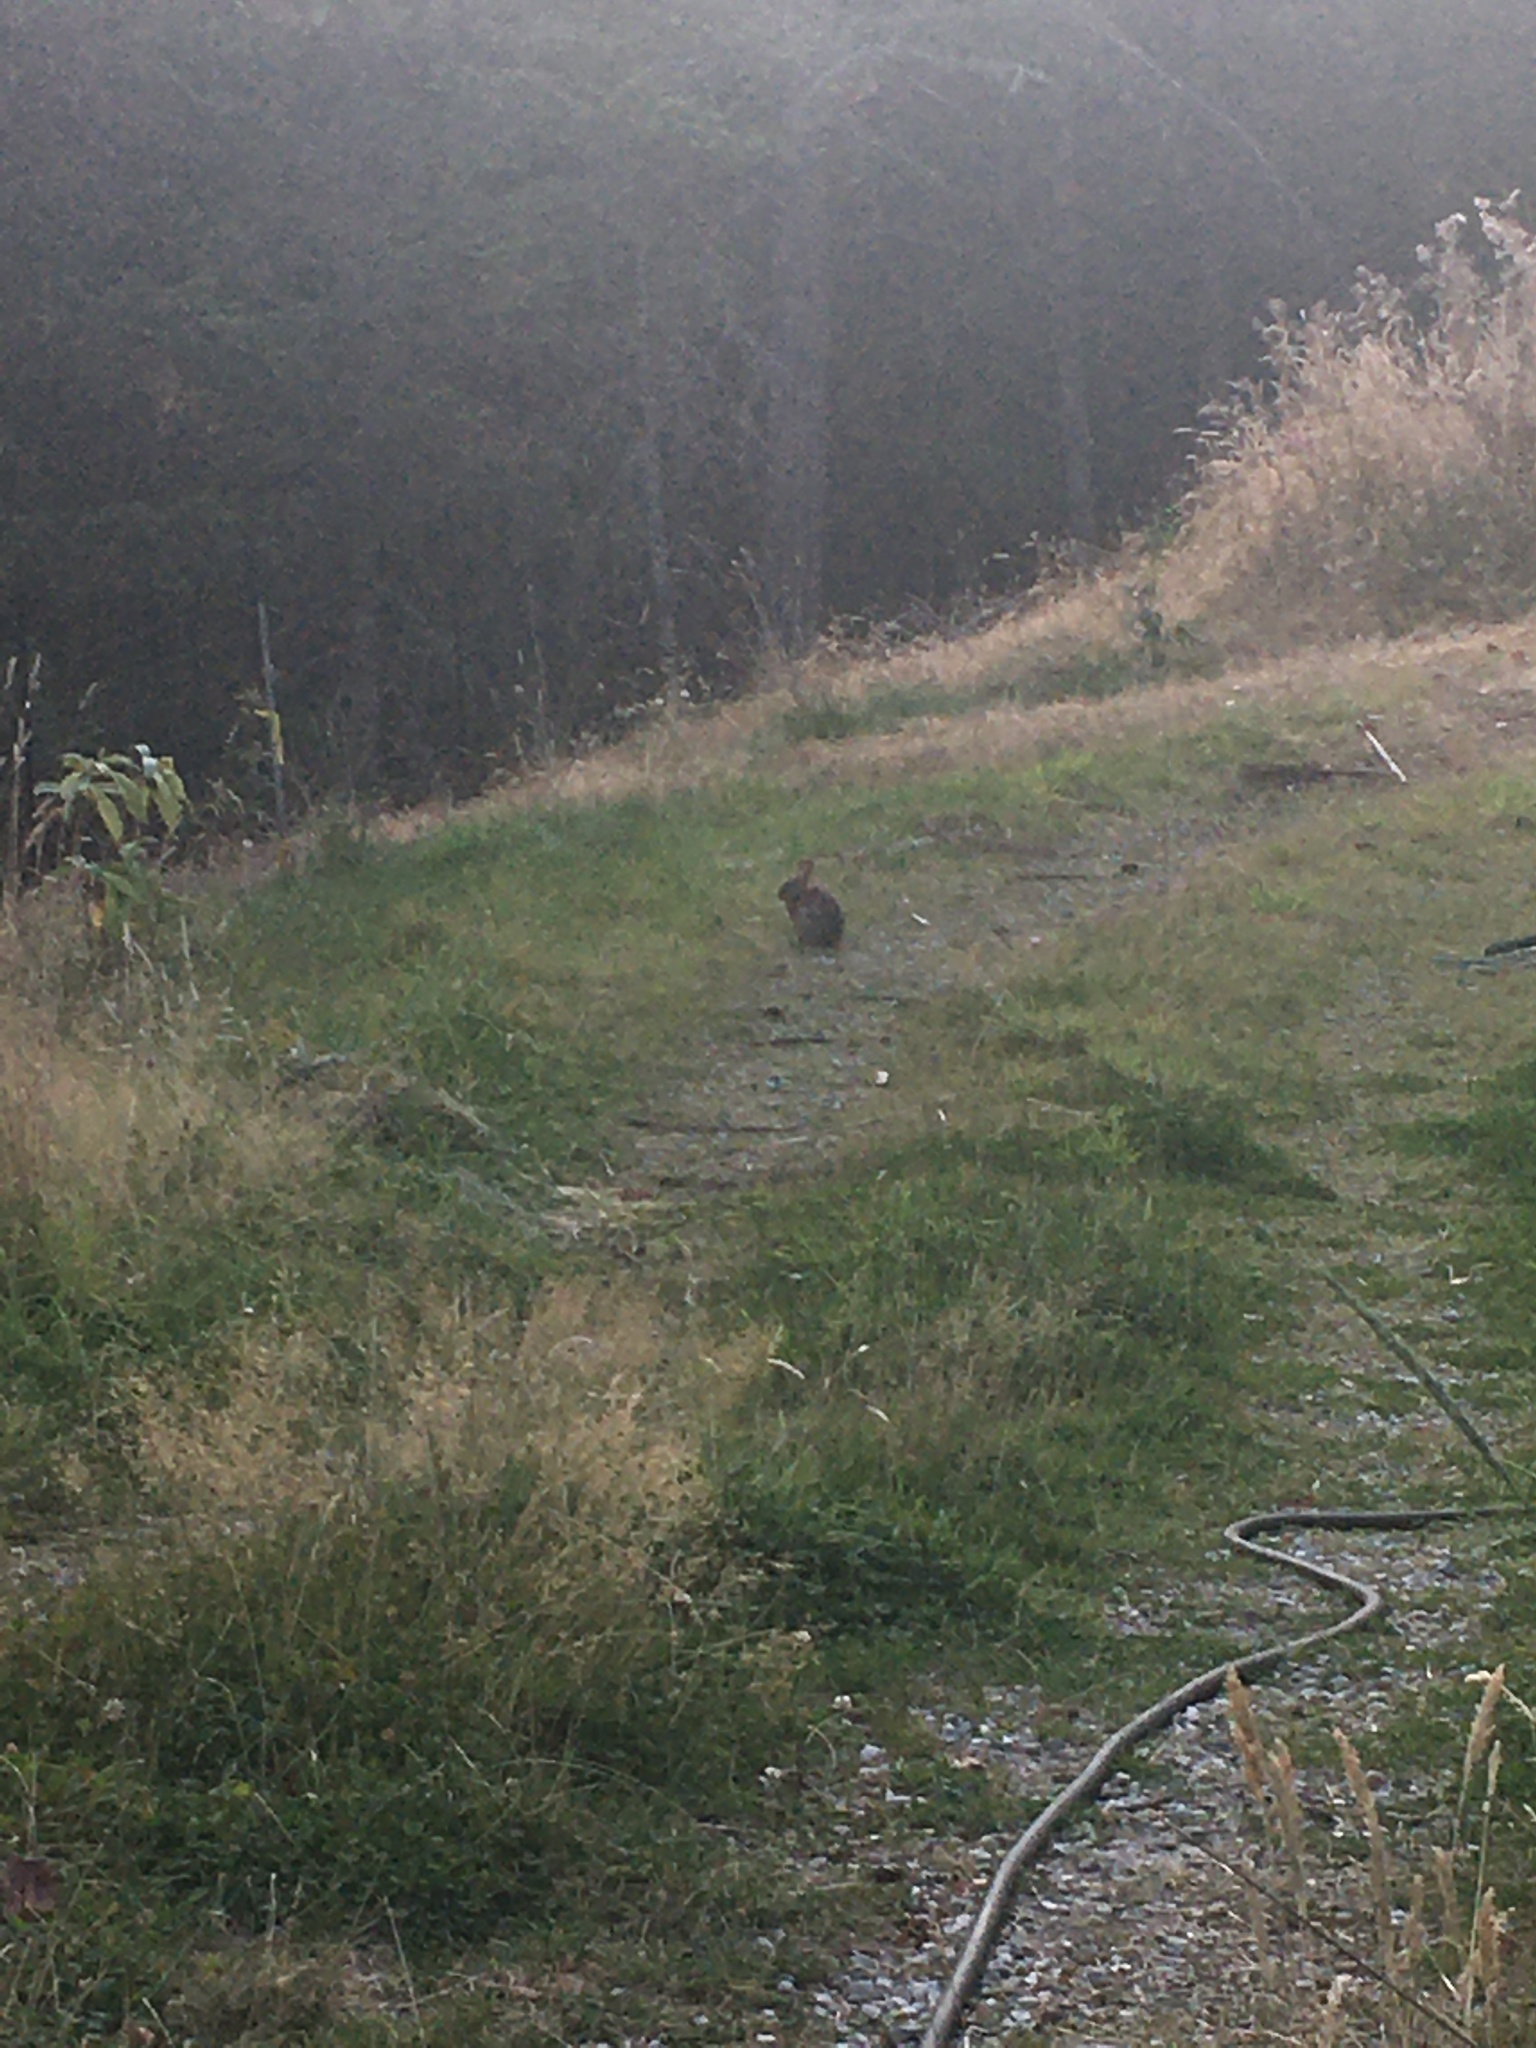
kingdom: Animalia
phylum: Chordata
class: Mammalia
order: Lagomorpha
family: Leporidae
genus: Sylvilagus
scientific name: Sylvilagus floridanus
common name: Eastern cottontail
